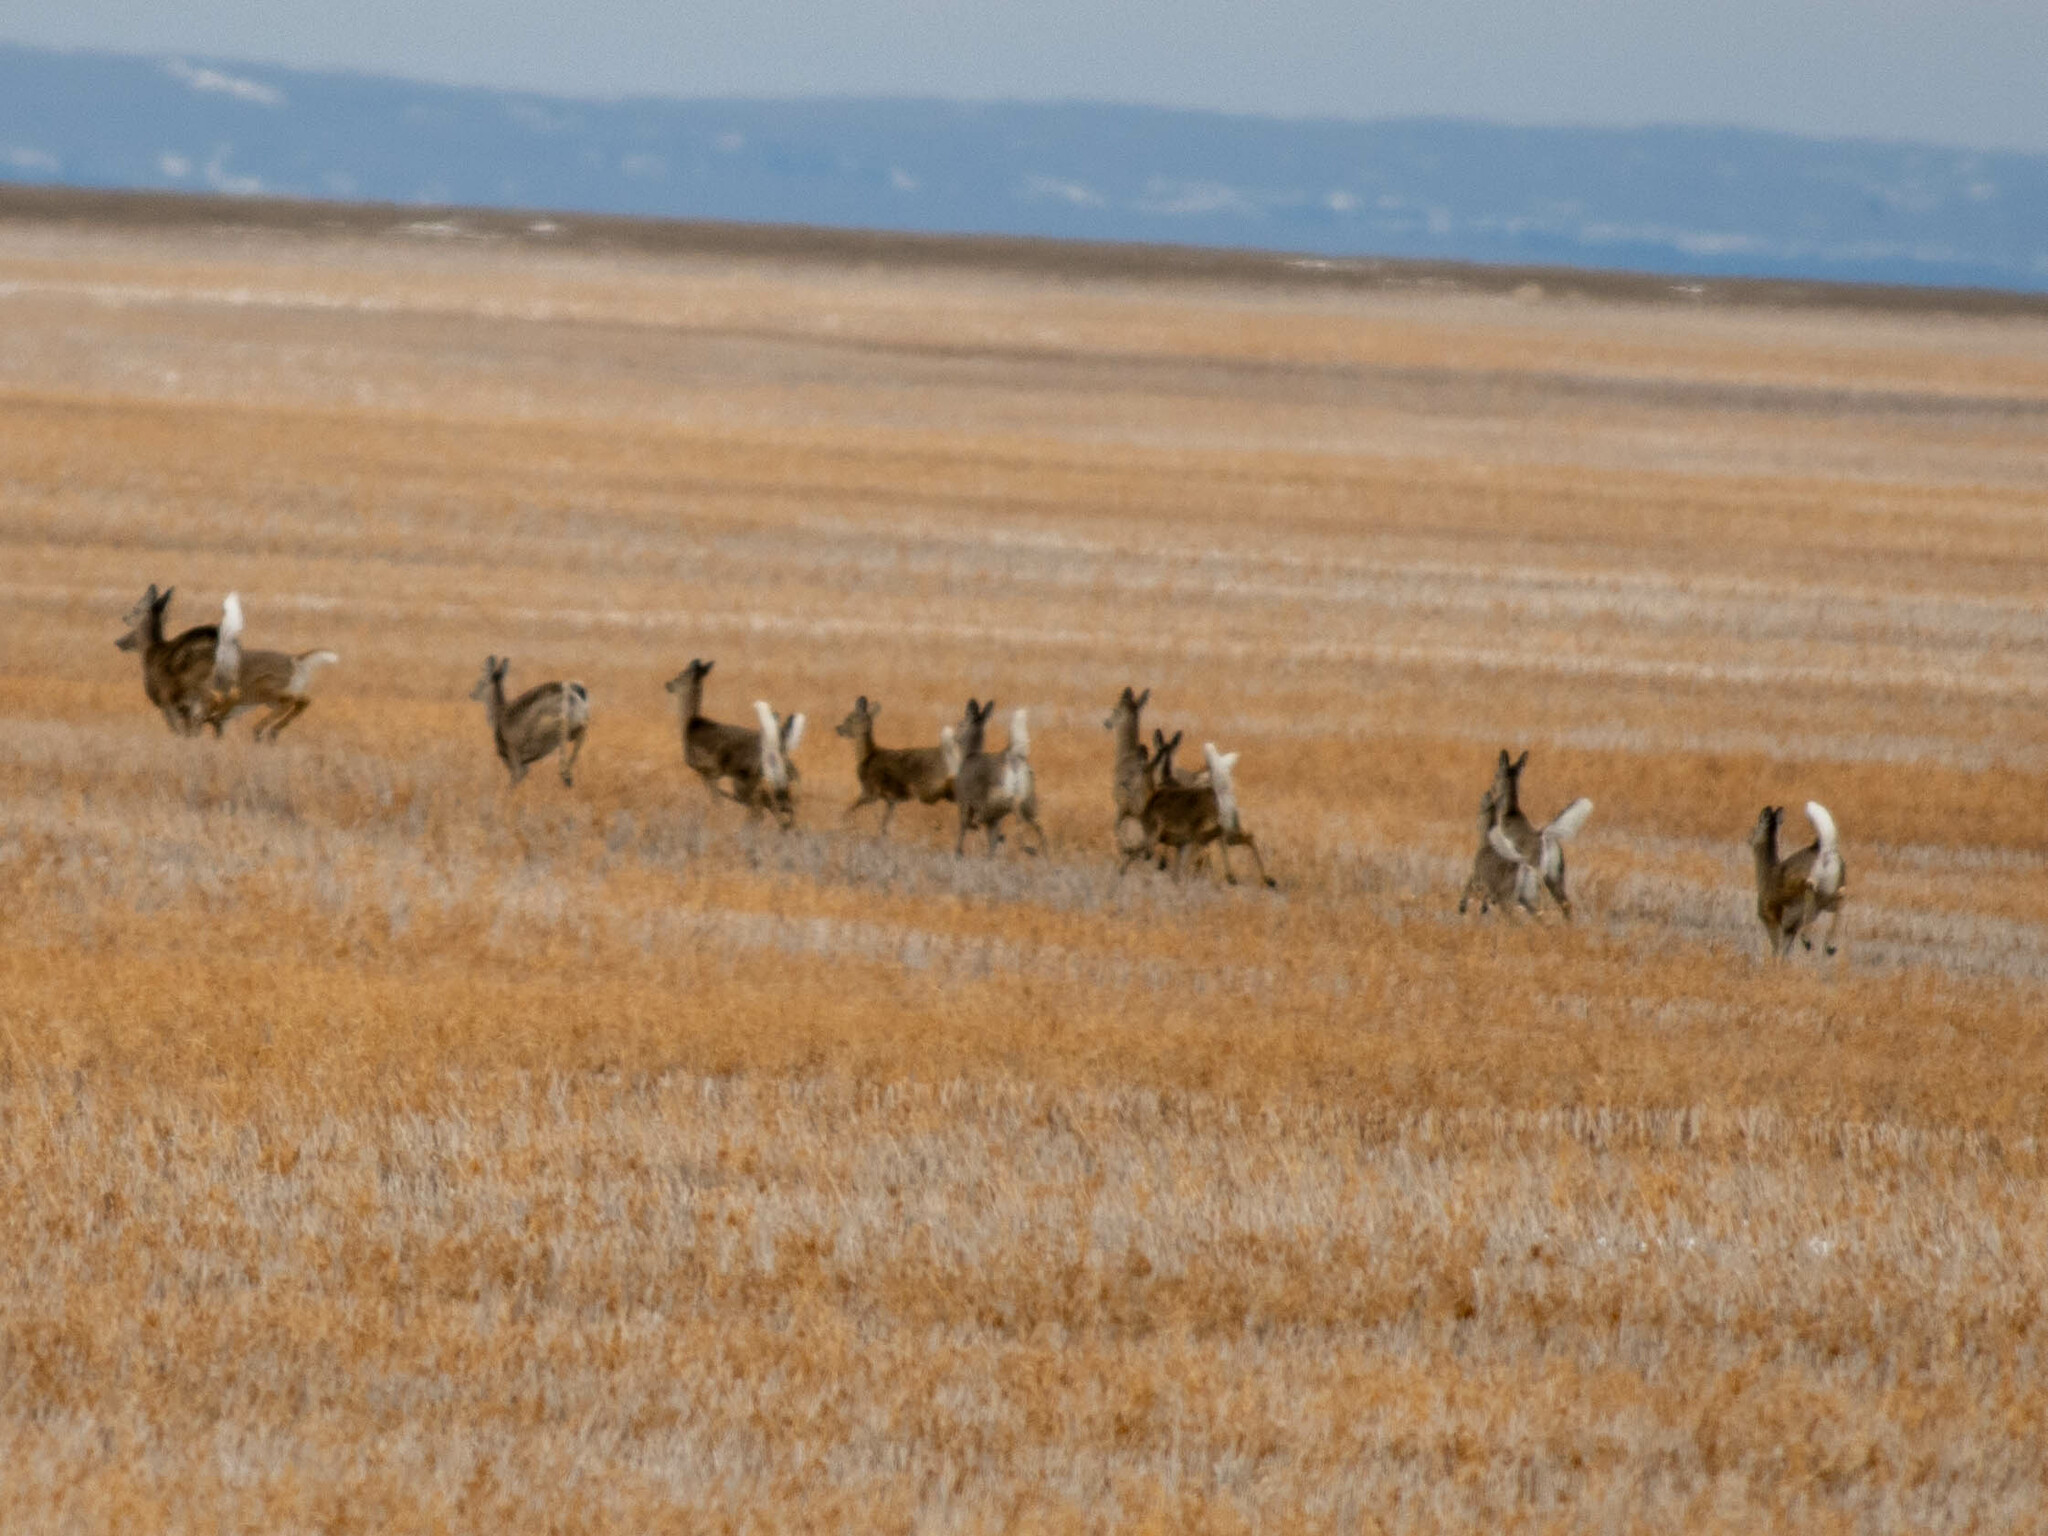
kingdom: Animalia
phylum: Chordata
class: Mammalia
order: Artiodactyla
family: Cervidae
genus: Odocoileus
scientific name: Odocoileus virginianus
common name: White-tailed deer
